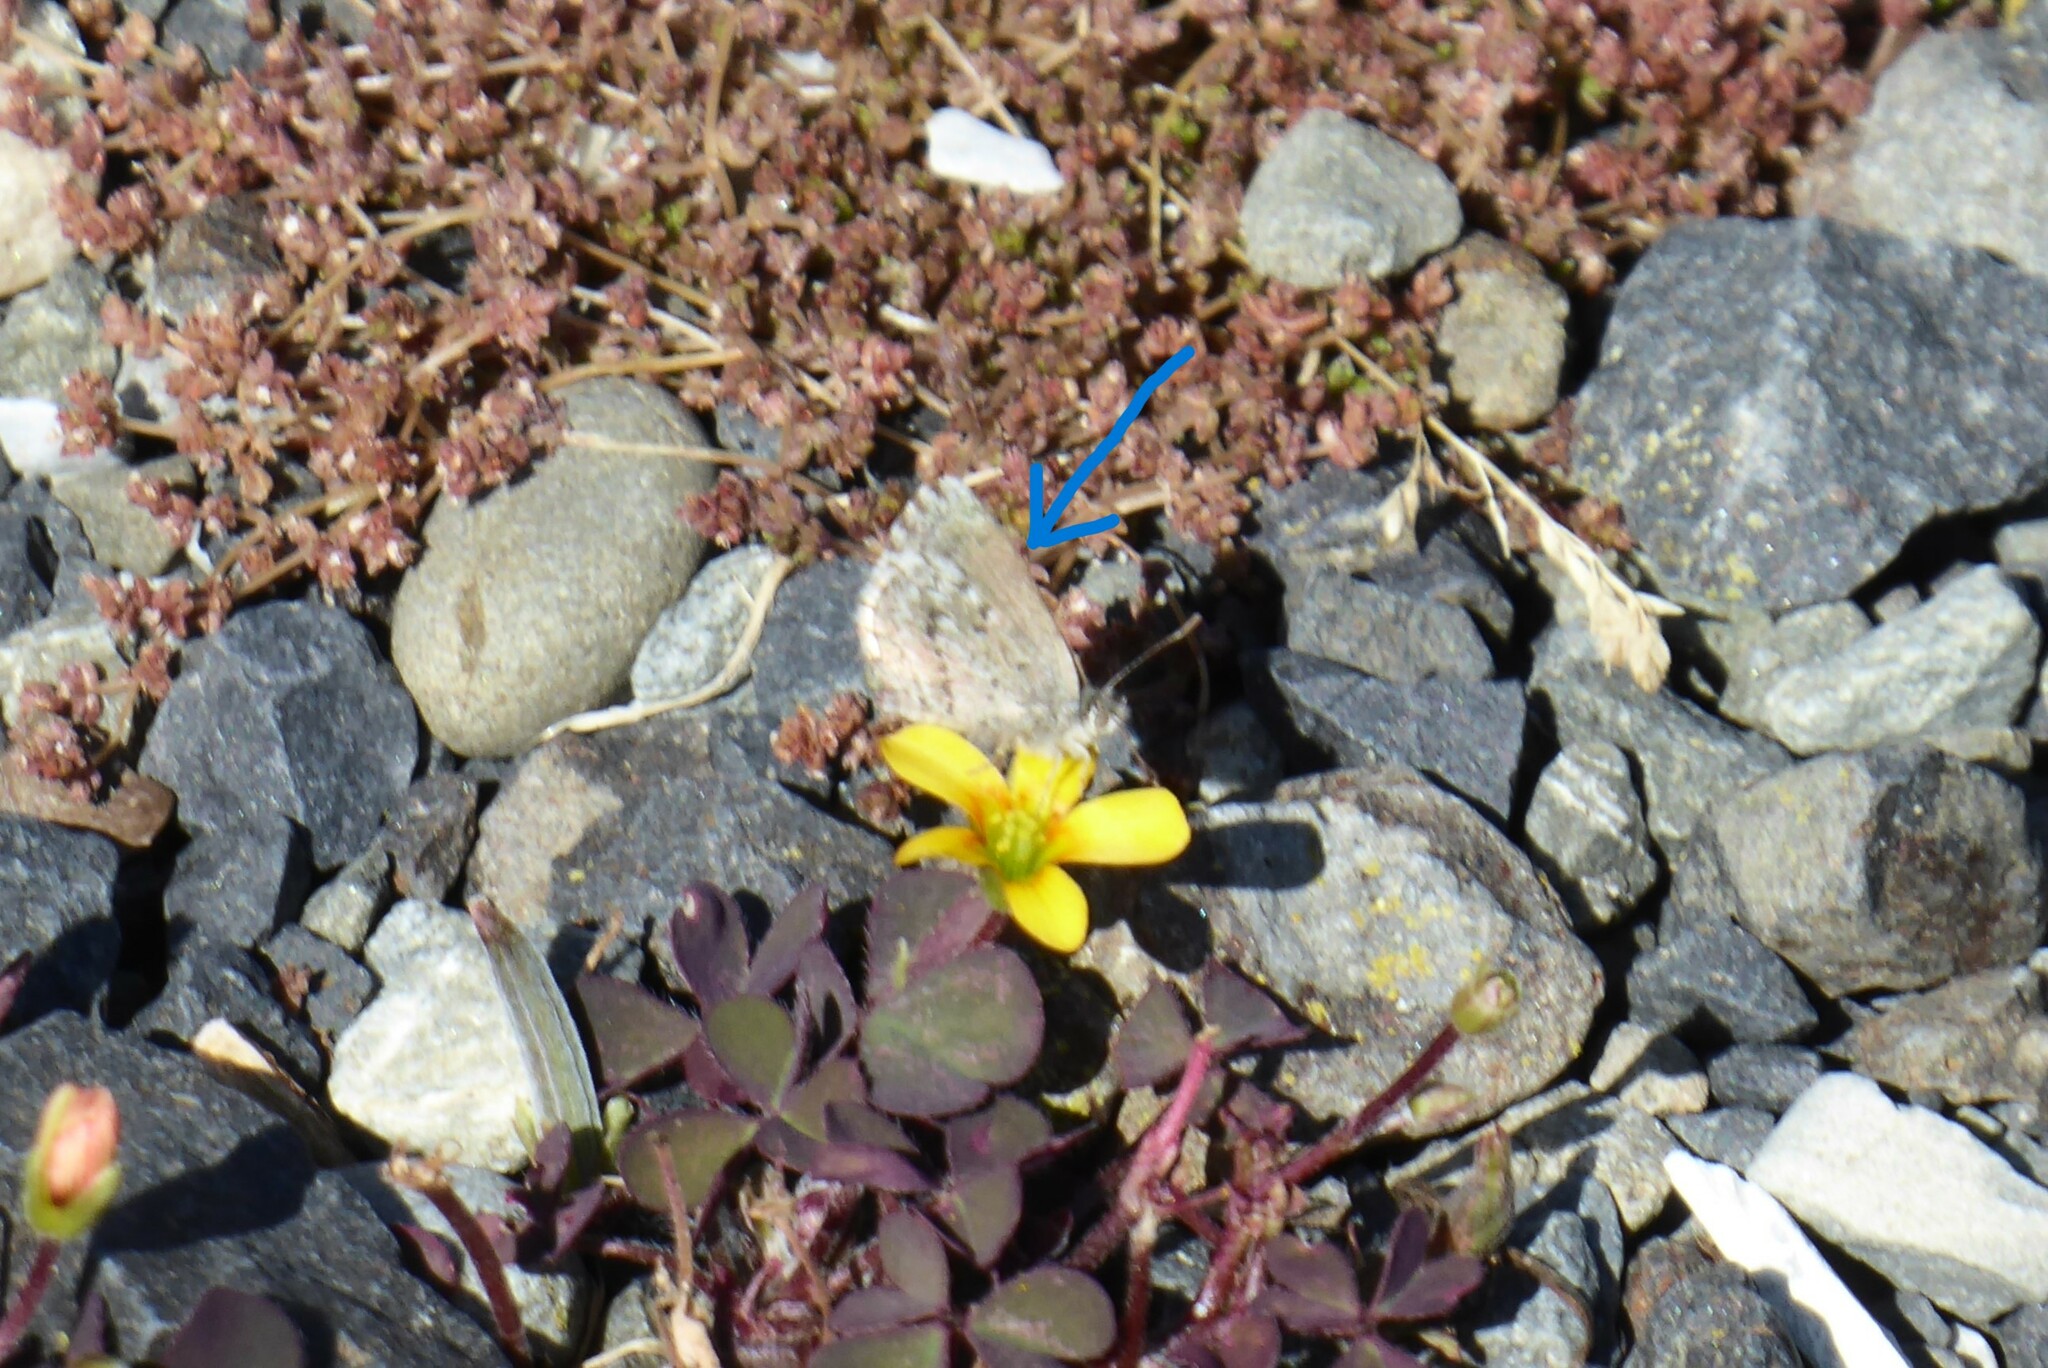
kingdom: Animalia
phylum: Arthropoda
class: Insecta
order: Lepidoptera
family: Lycaenidae
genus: Zizina
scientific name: Zizina oxleyi
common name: Southern blue
